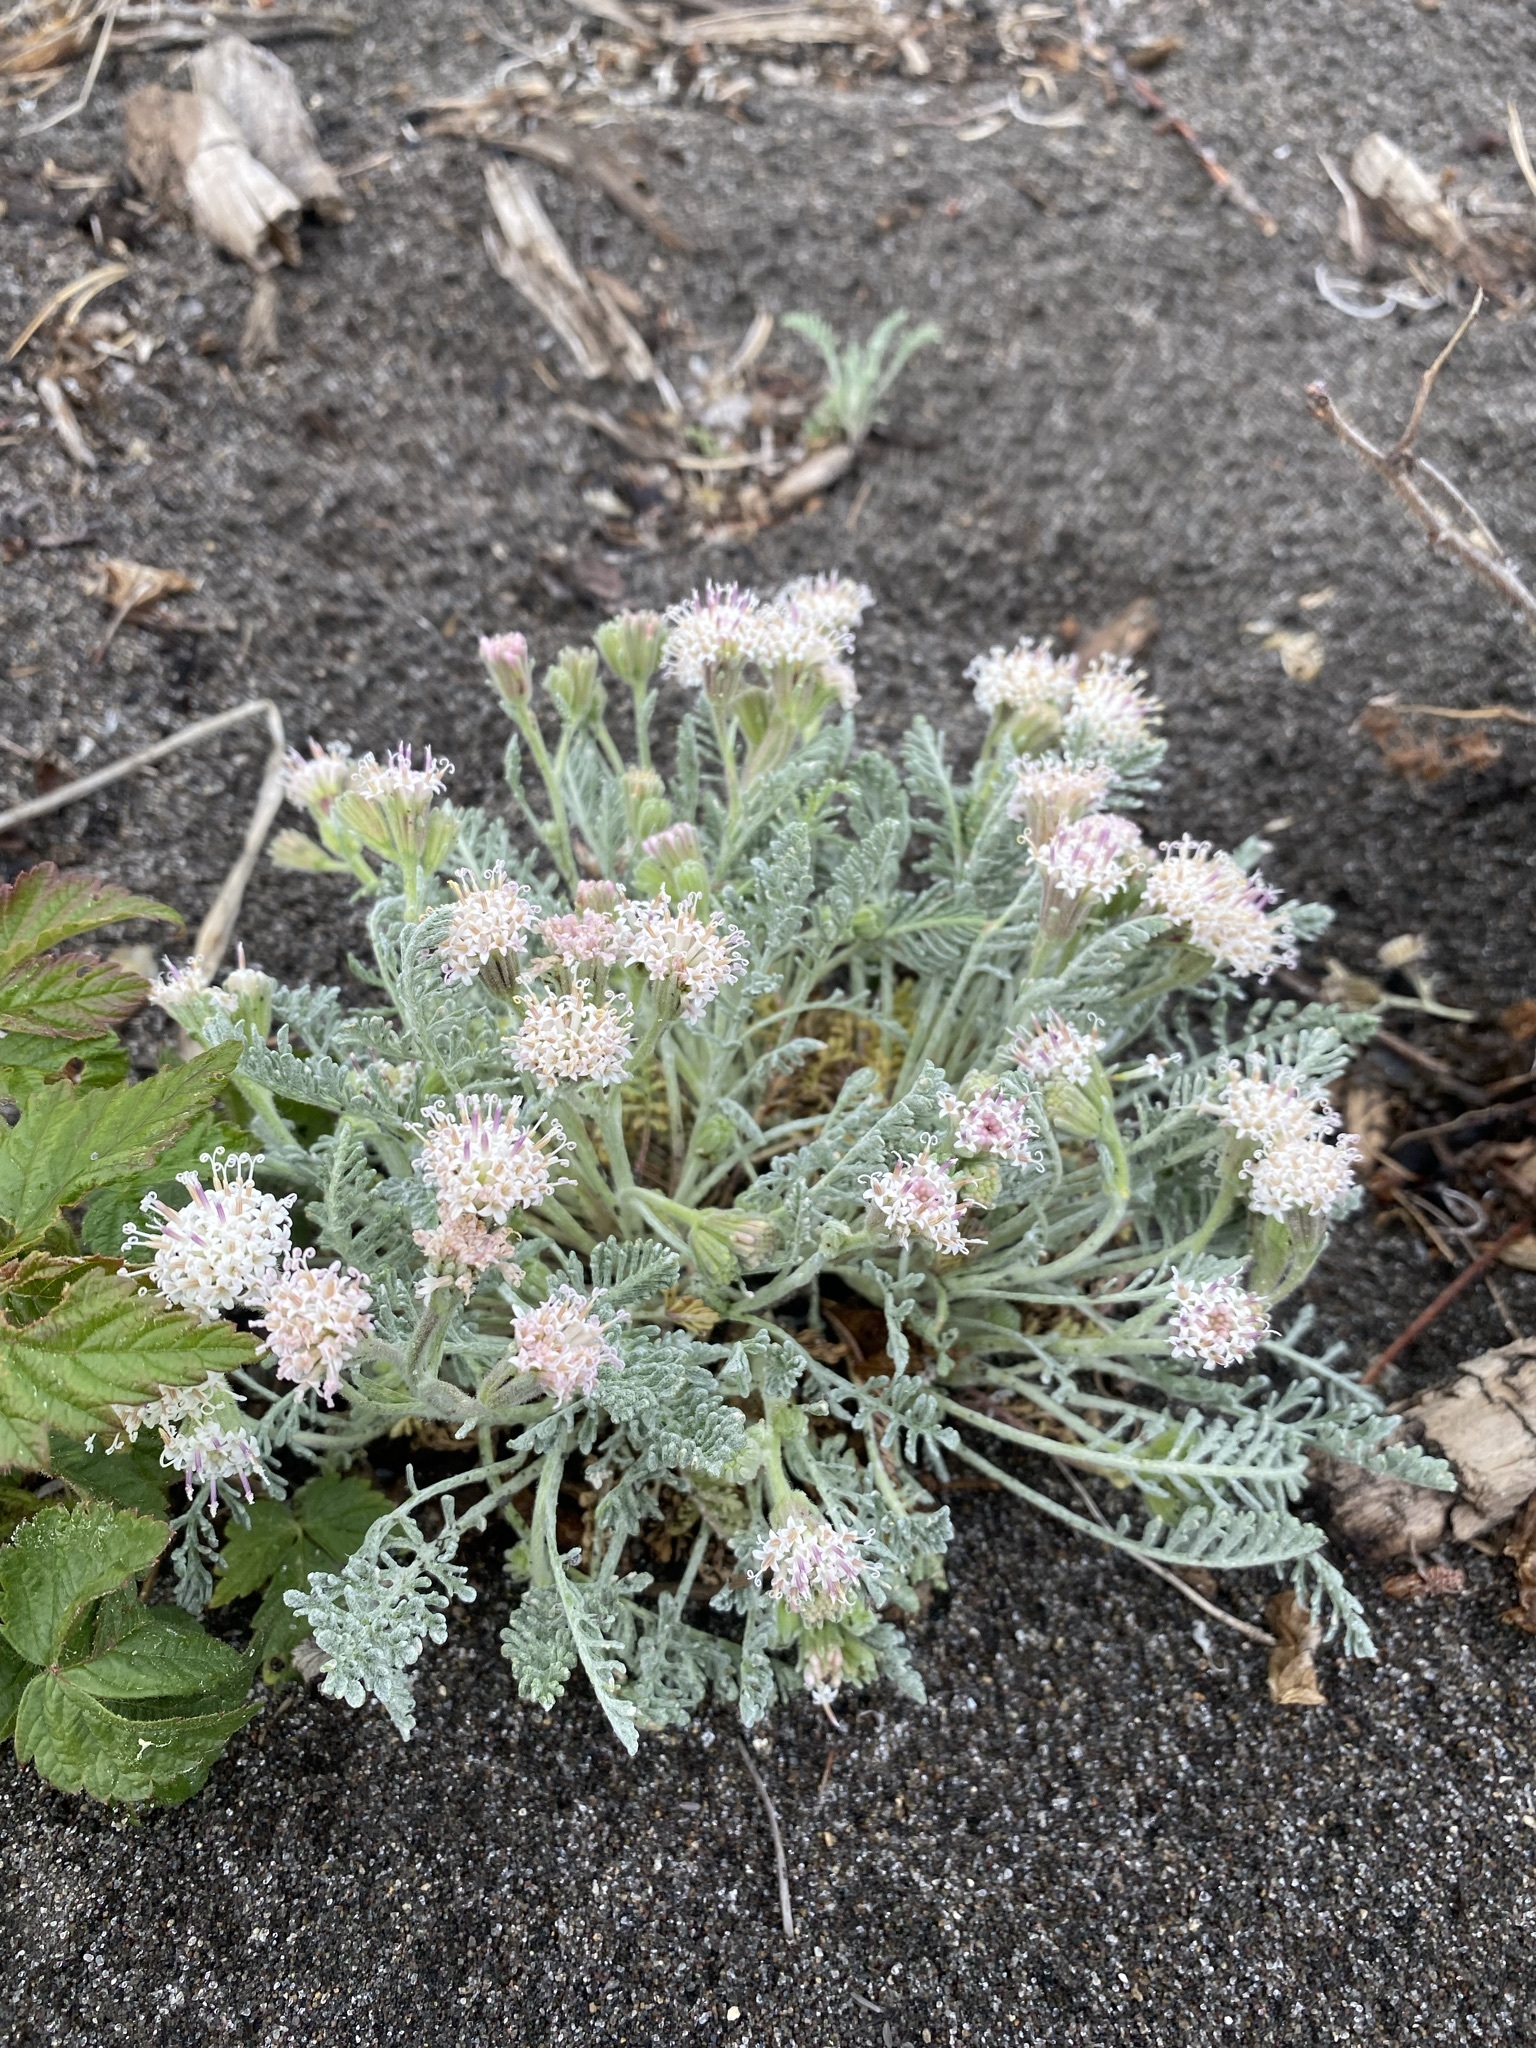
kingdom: Plantae
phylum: Tracheophyta
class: Magnoliopsida
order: Asterales
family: Asteraceae
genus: Chaenactis
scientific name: Chaenactis douglasii
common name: Hoary pincushion
